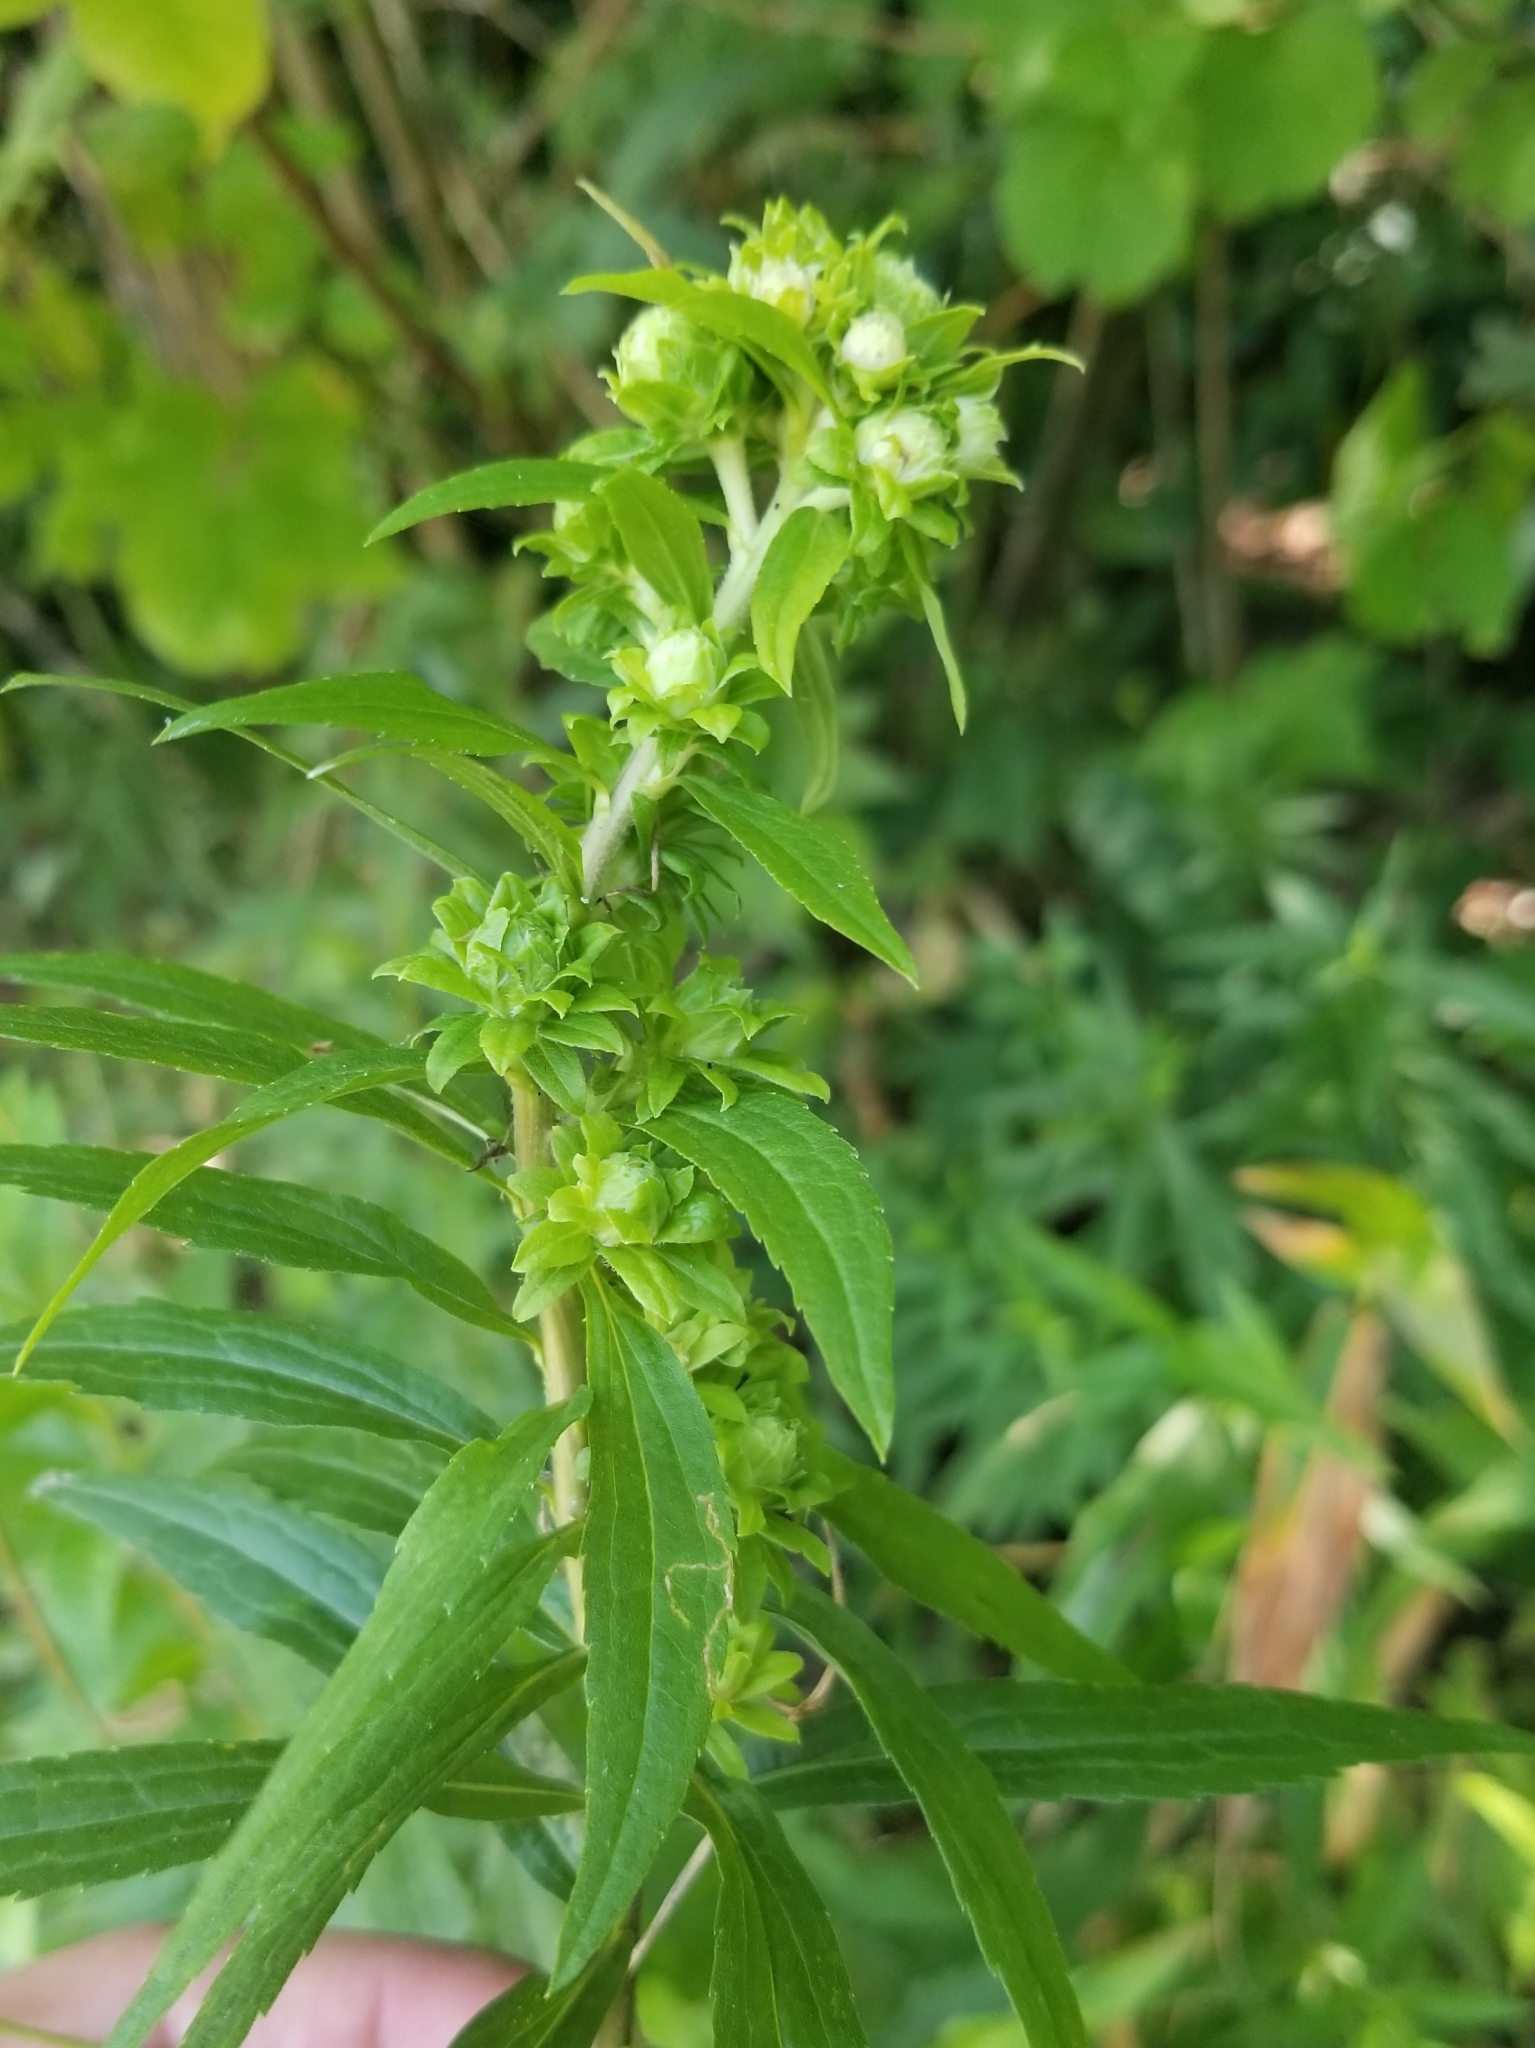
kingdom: Animalia
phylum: Arthropoda
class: Insecta
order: Diptera
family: Tephritidae
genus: Procecidochares
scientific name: Procecidochares atra
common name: Goldenrod brussels sprout gall fly
